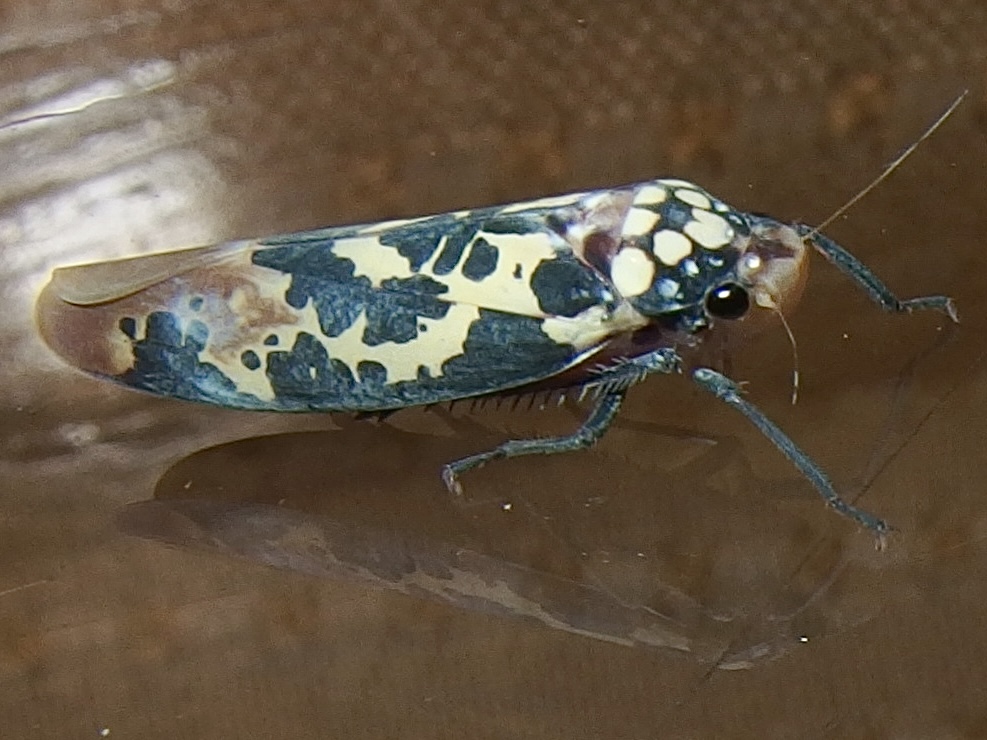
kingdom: Animalia
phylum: Arthropoda
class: Insecta
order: Hemiptera
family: Cicadellidae
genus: Onega
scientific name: Onega musa
